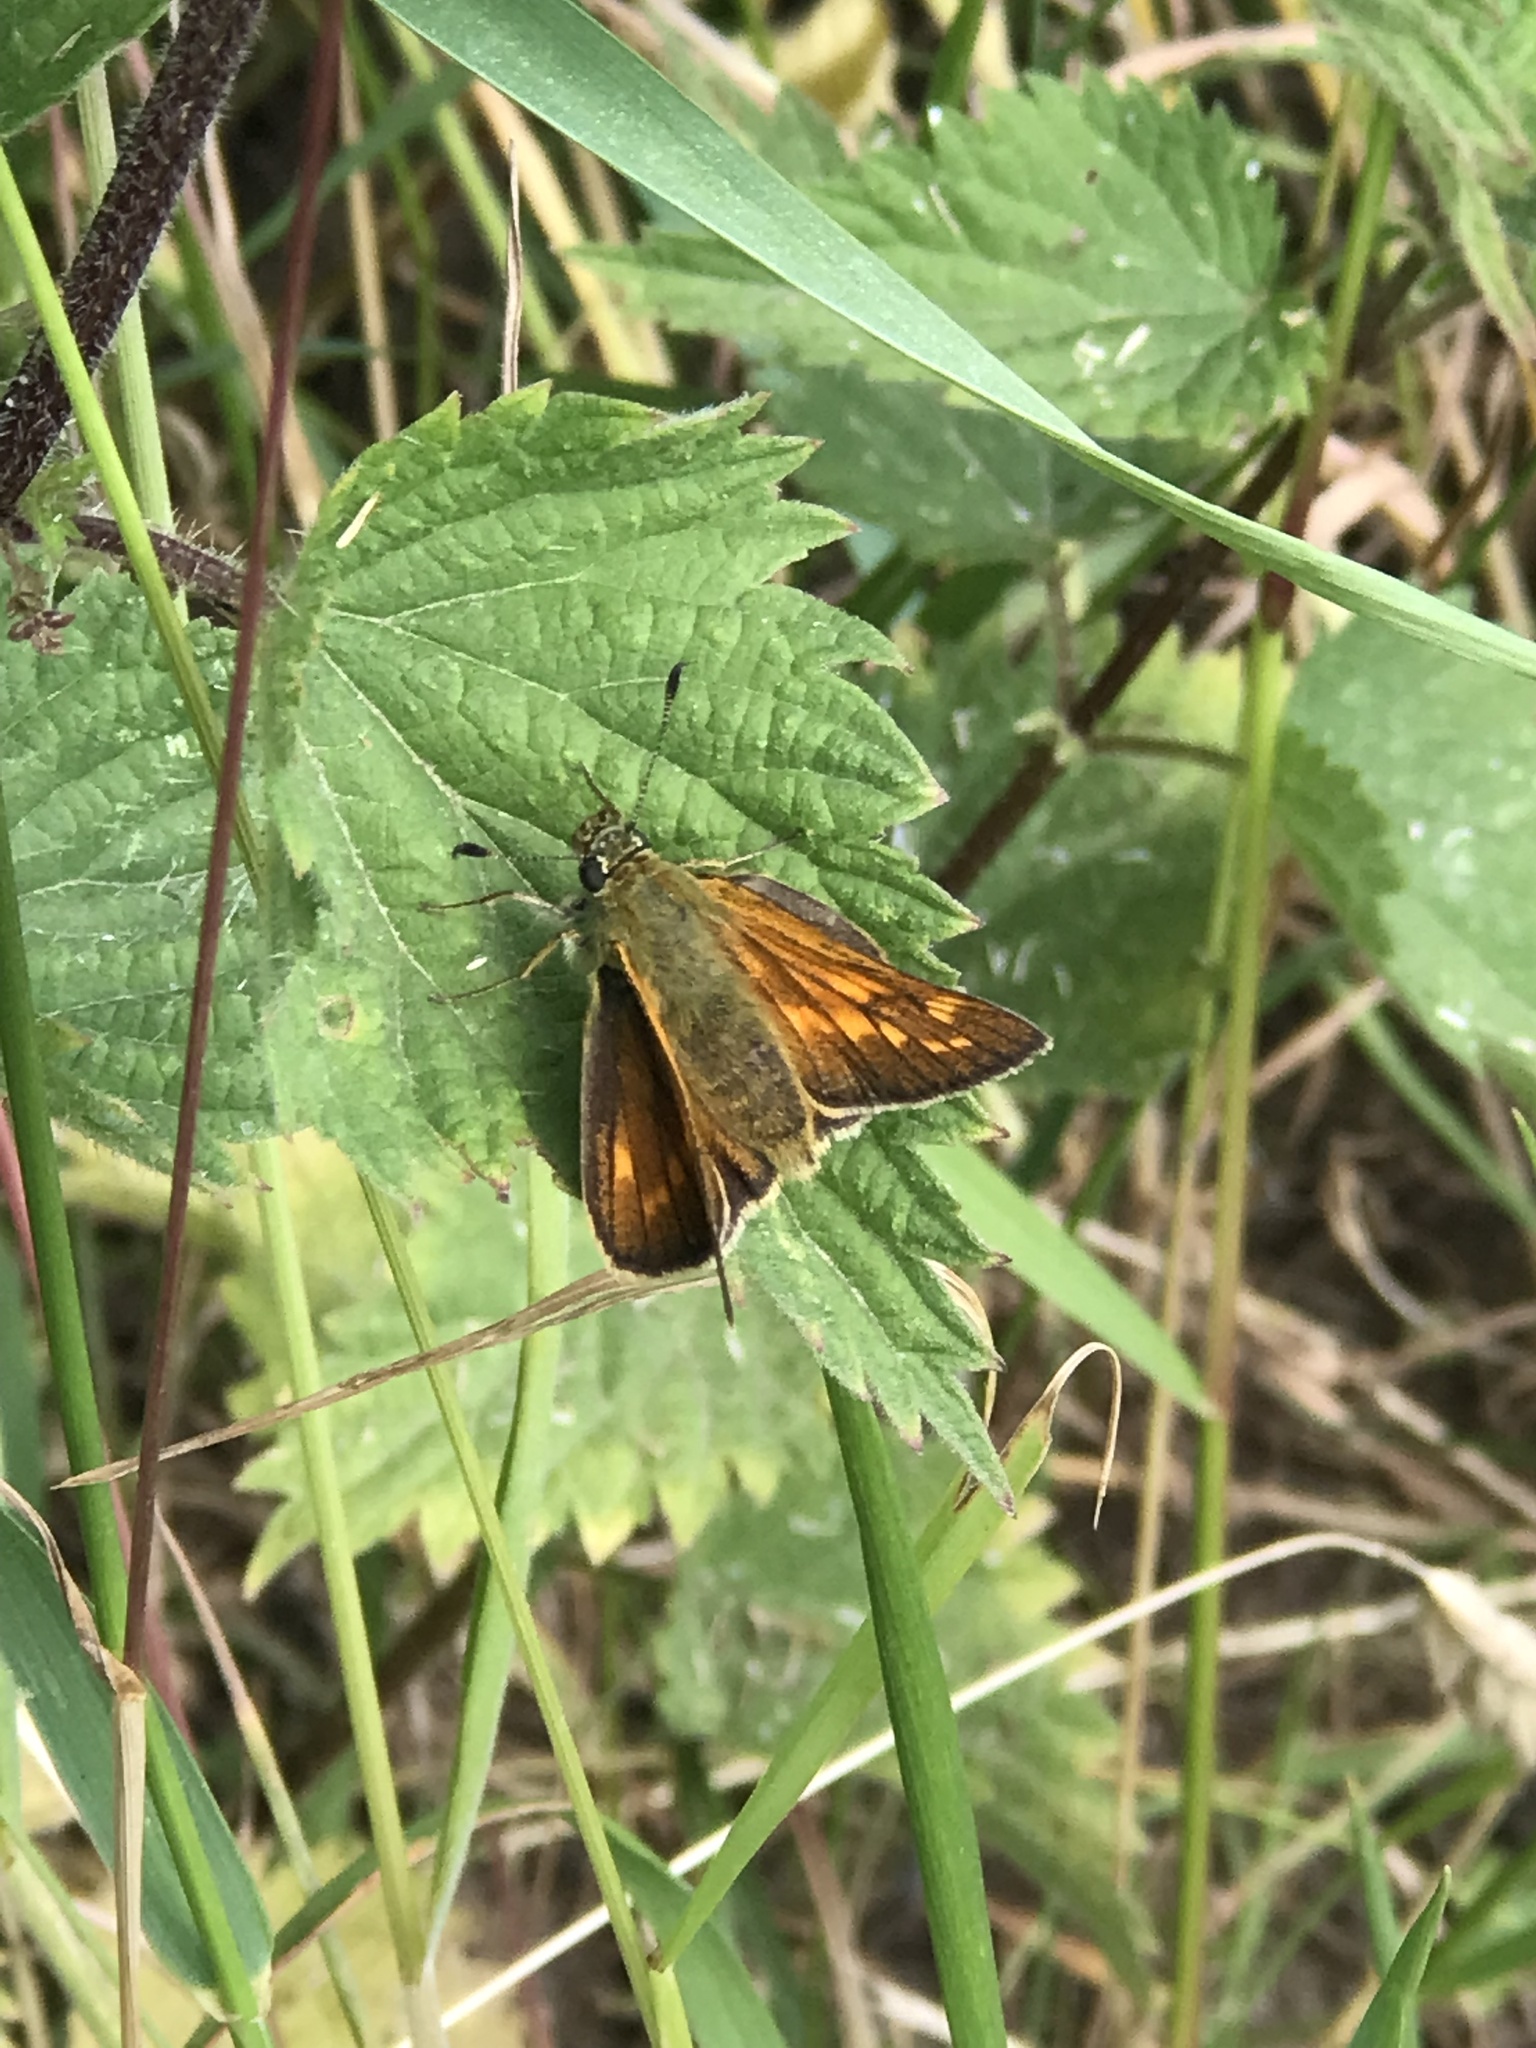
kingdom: Animalia
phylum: Arthropoda
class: Insecta
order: Lepidoptera
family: Hesperiidae
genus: Ochlodes
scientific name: Ochlodes venata
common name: Large skipper
